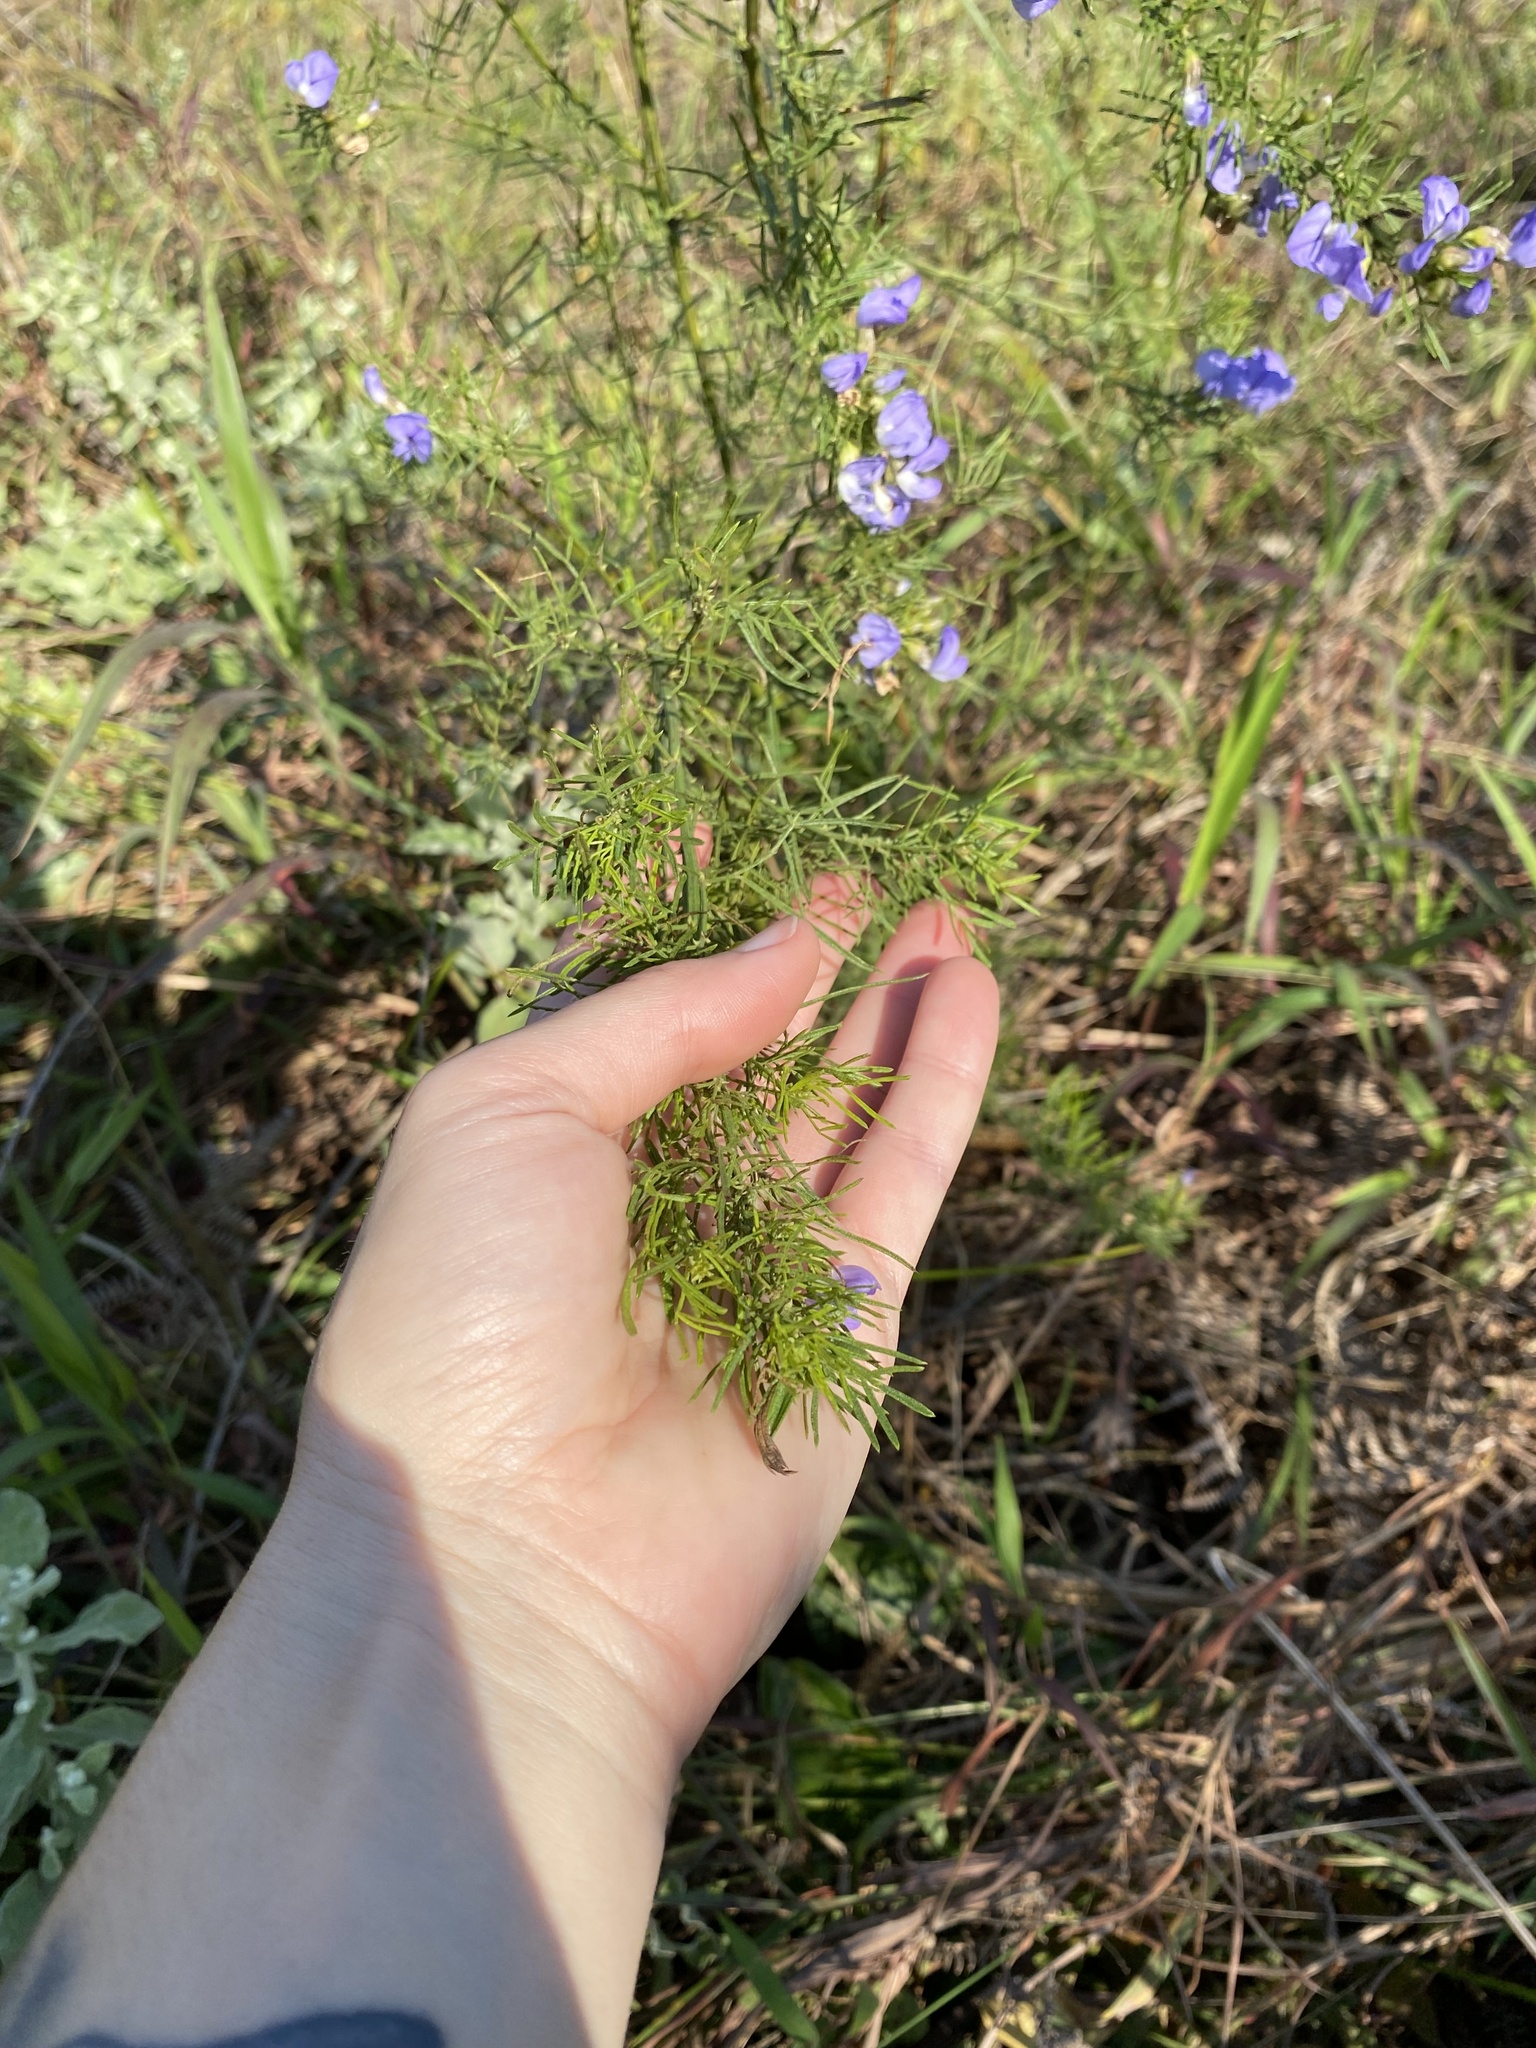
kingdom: Plantae
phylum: Tracheophyta
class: Magnoliopsida
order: Fabales
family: Fabaceae
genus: Psoralea
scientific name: Psoralea glabra
